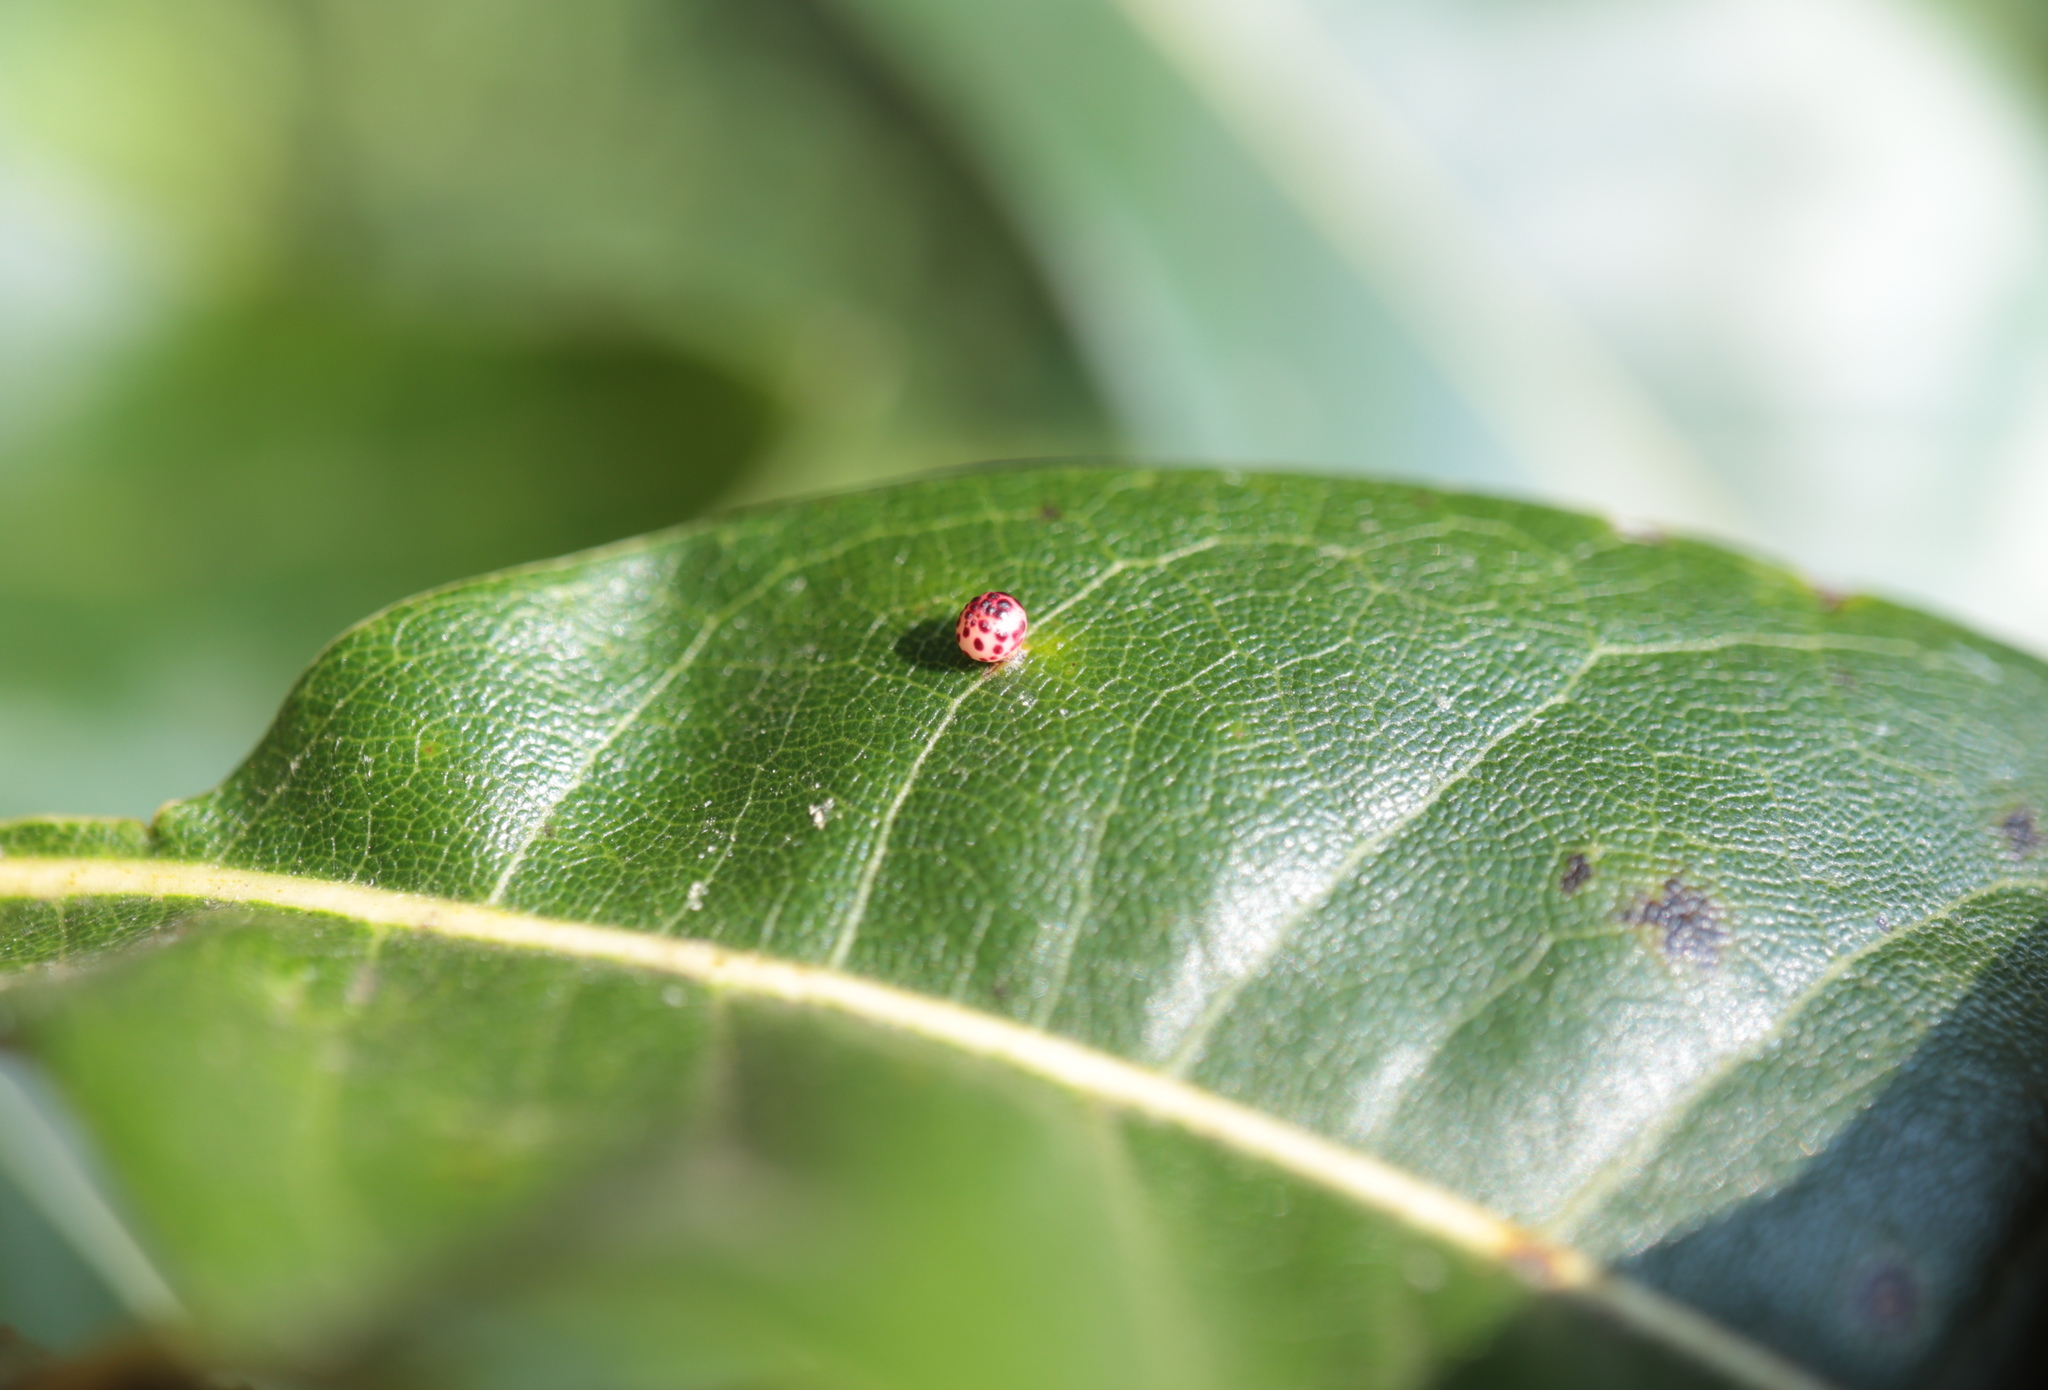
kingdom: Animalia
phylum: Arthropoda
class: Insecta
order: Hymenoptera
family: Cynipidae
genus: Zopheroteras
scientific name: Zopheroteras
